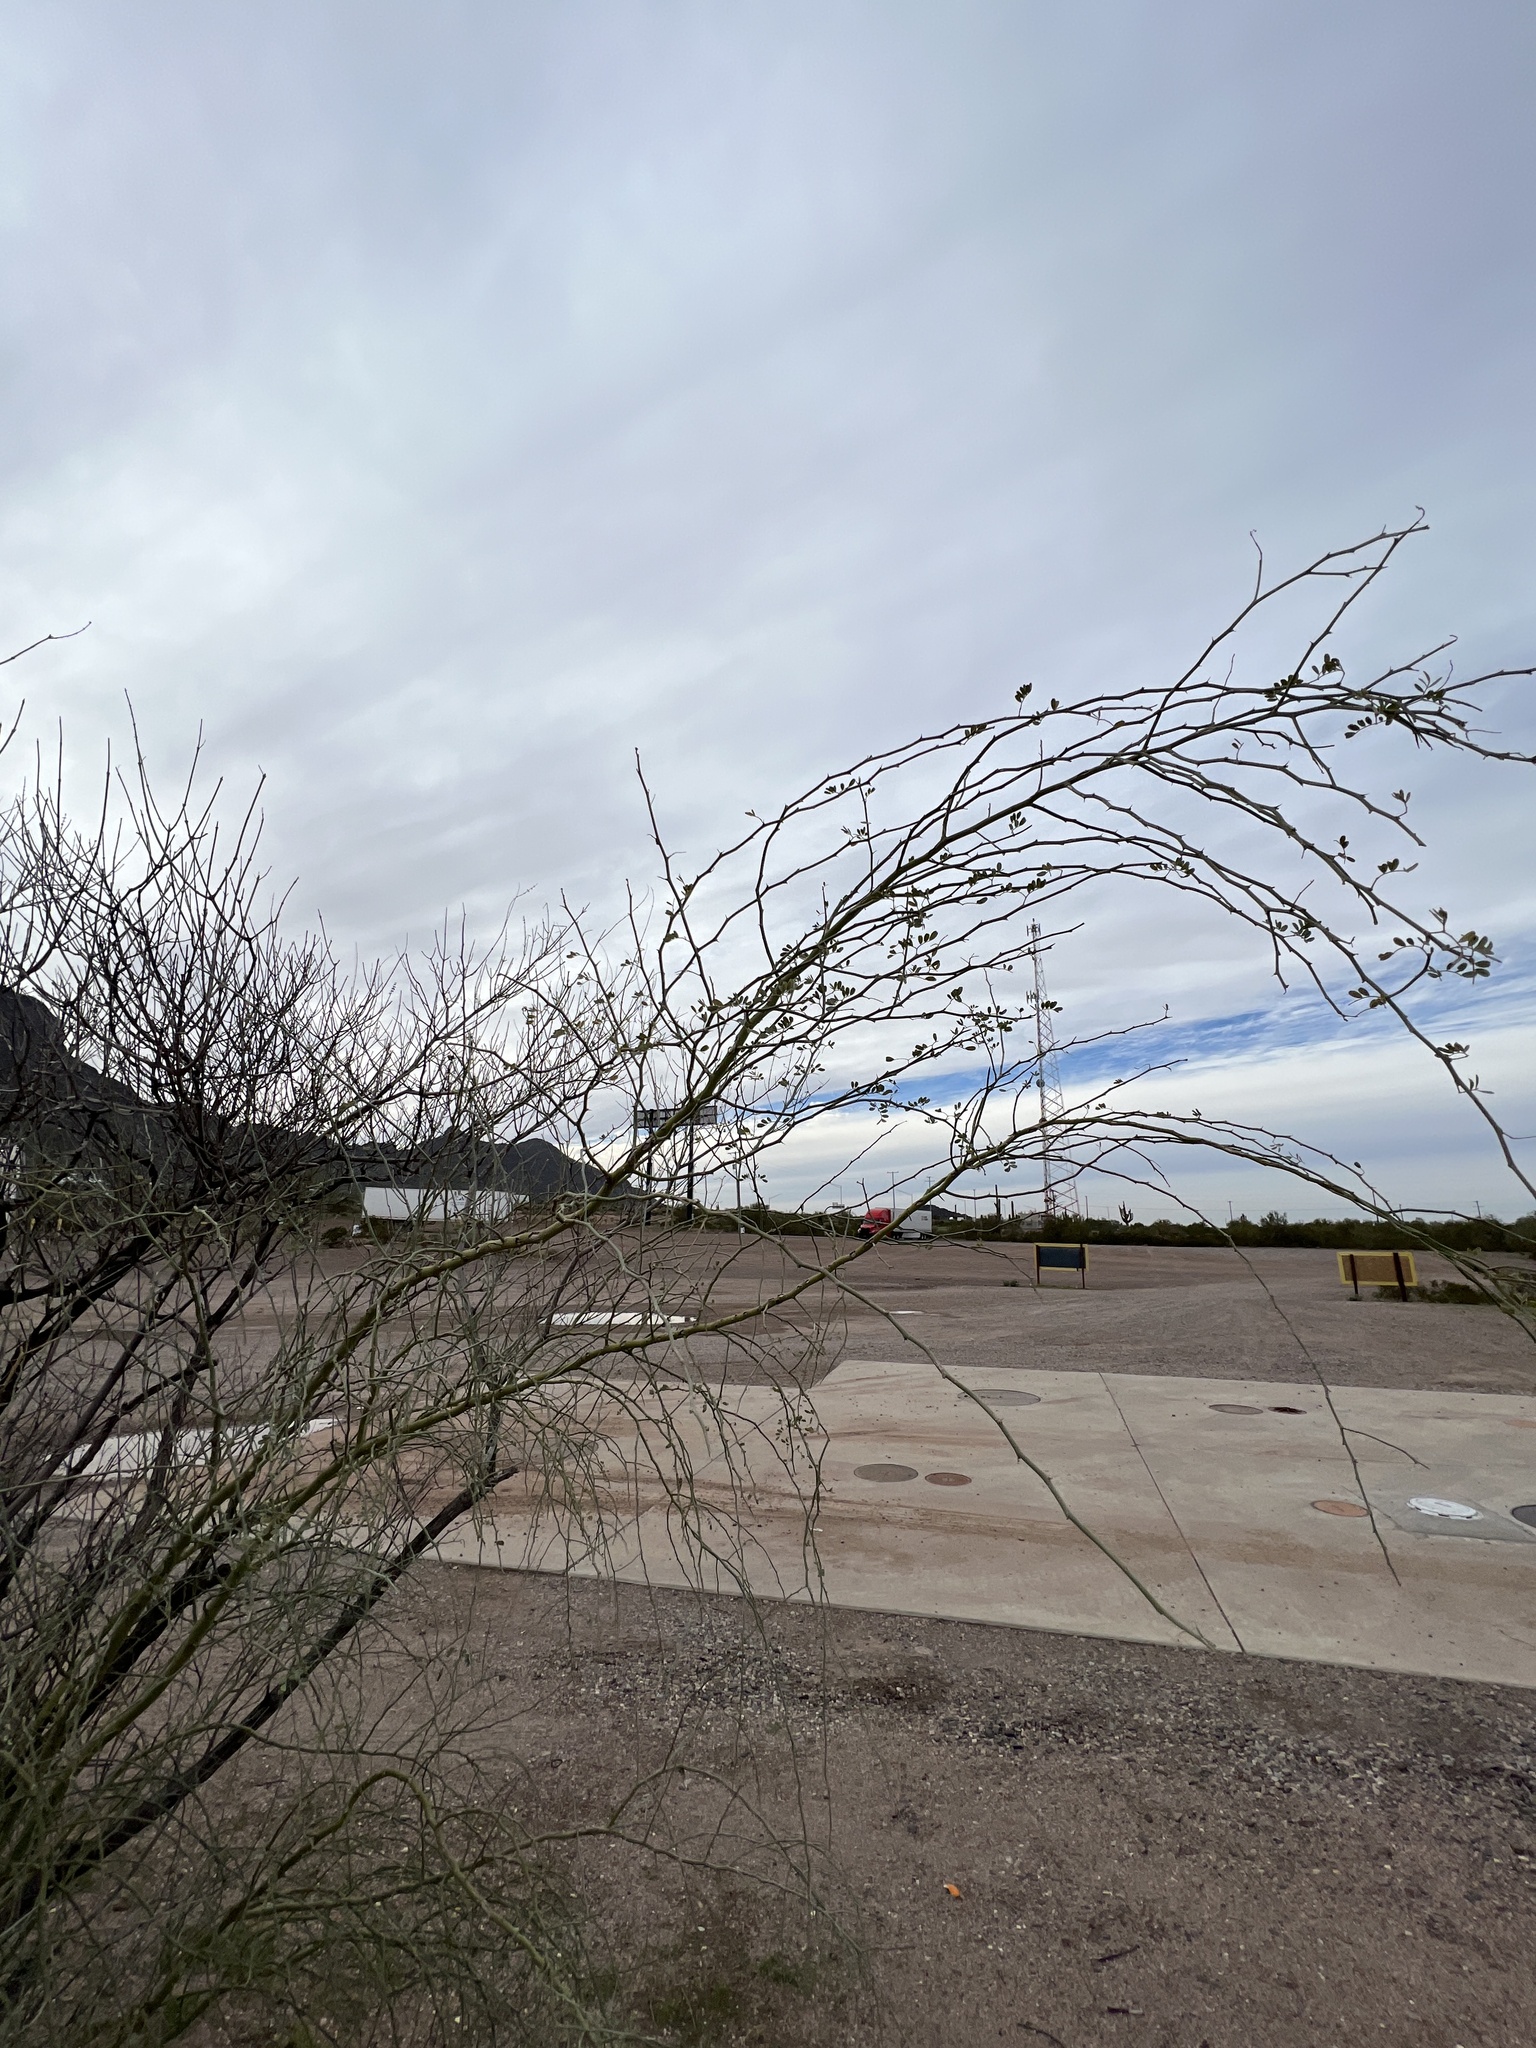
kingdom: Plantae
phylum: Tracheophyta
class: Magnoliopsida
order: Fabales
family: Fabaceae
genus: Parkinsonia
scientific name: Parkinsonia florida
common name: Blue paloverde
